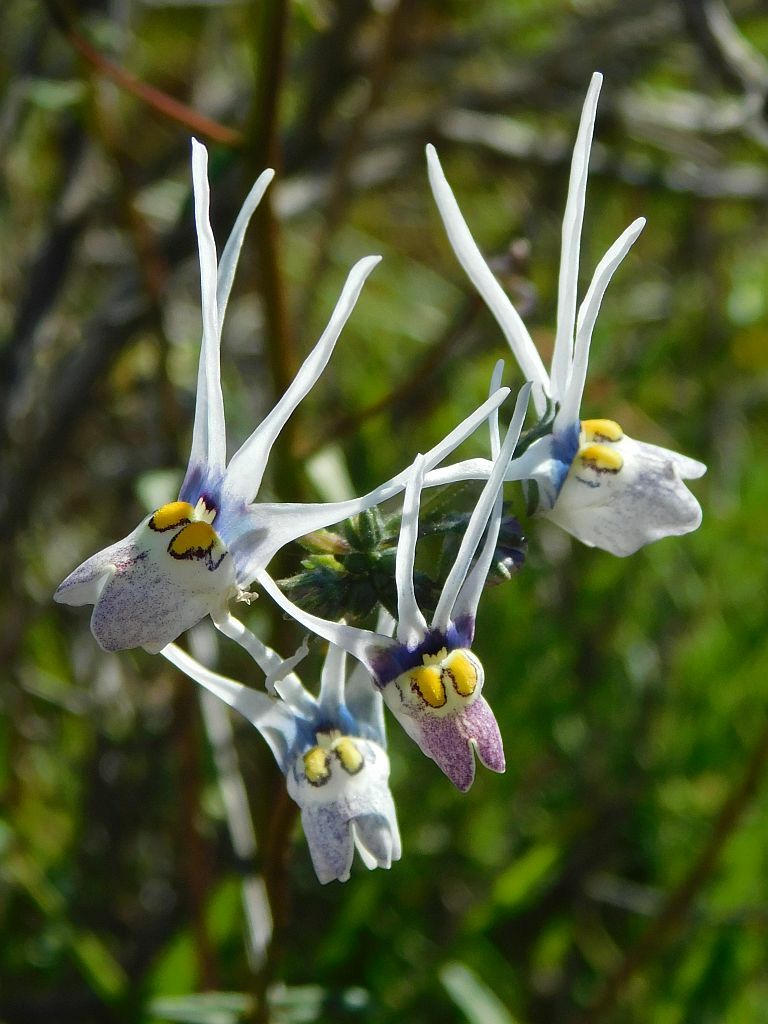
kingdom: Plantae
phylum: Tracheophyta
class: Magnoliopsida
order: Lamiales
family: Scrophulariaceae
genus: Nemesia
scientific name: Nemesia cheiranthus
